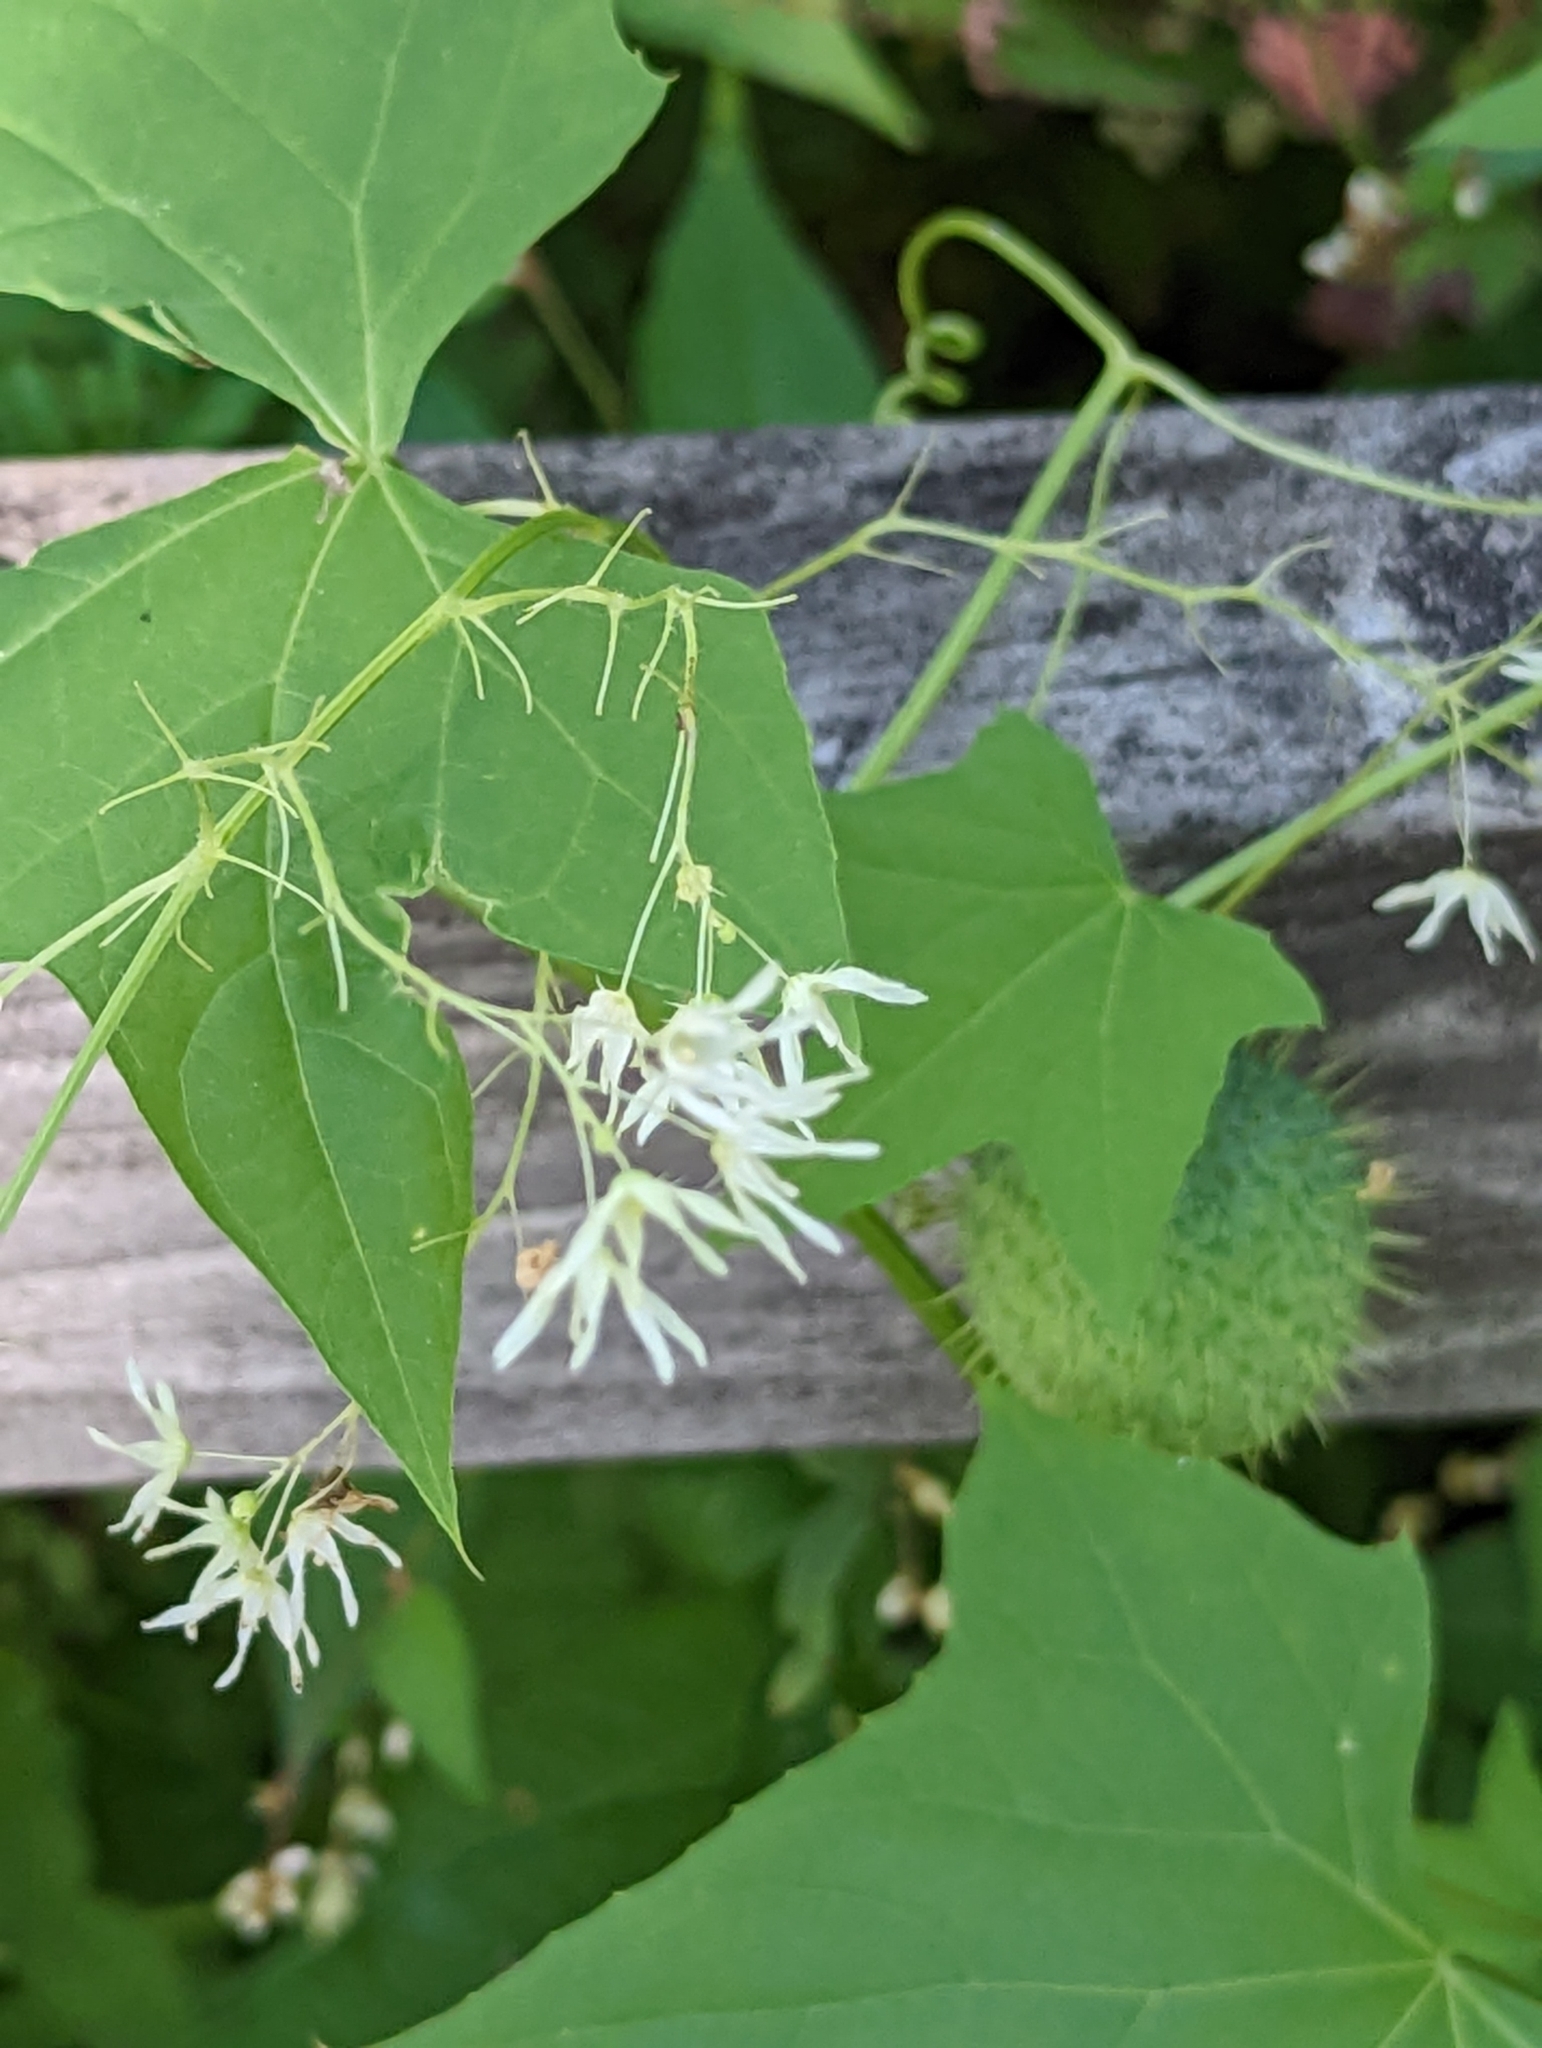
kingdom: Plantae
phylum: Tracheophyta
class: Magnoliopsida
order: Cucurbitales
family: Cucurbitaceae
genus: Echinocystis
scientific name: Echinocystis lobata
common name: Wild cucumber
